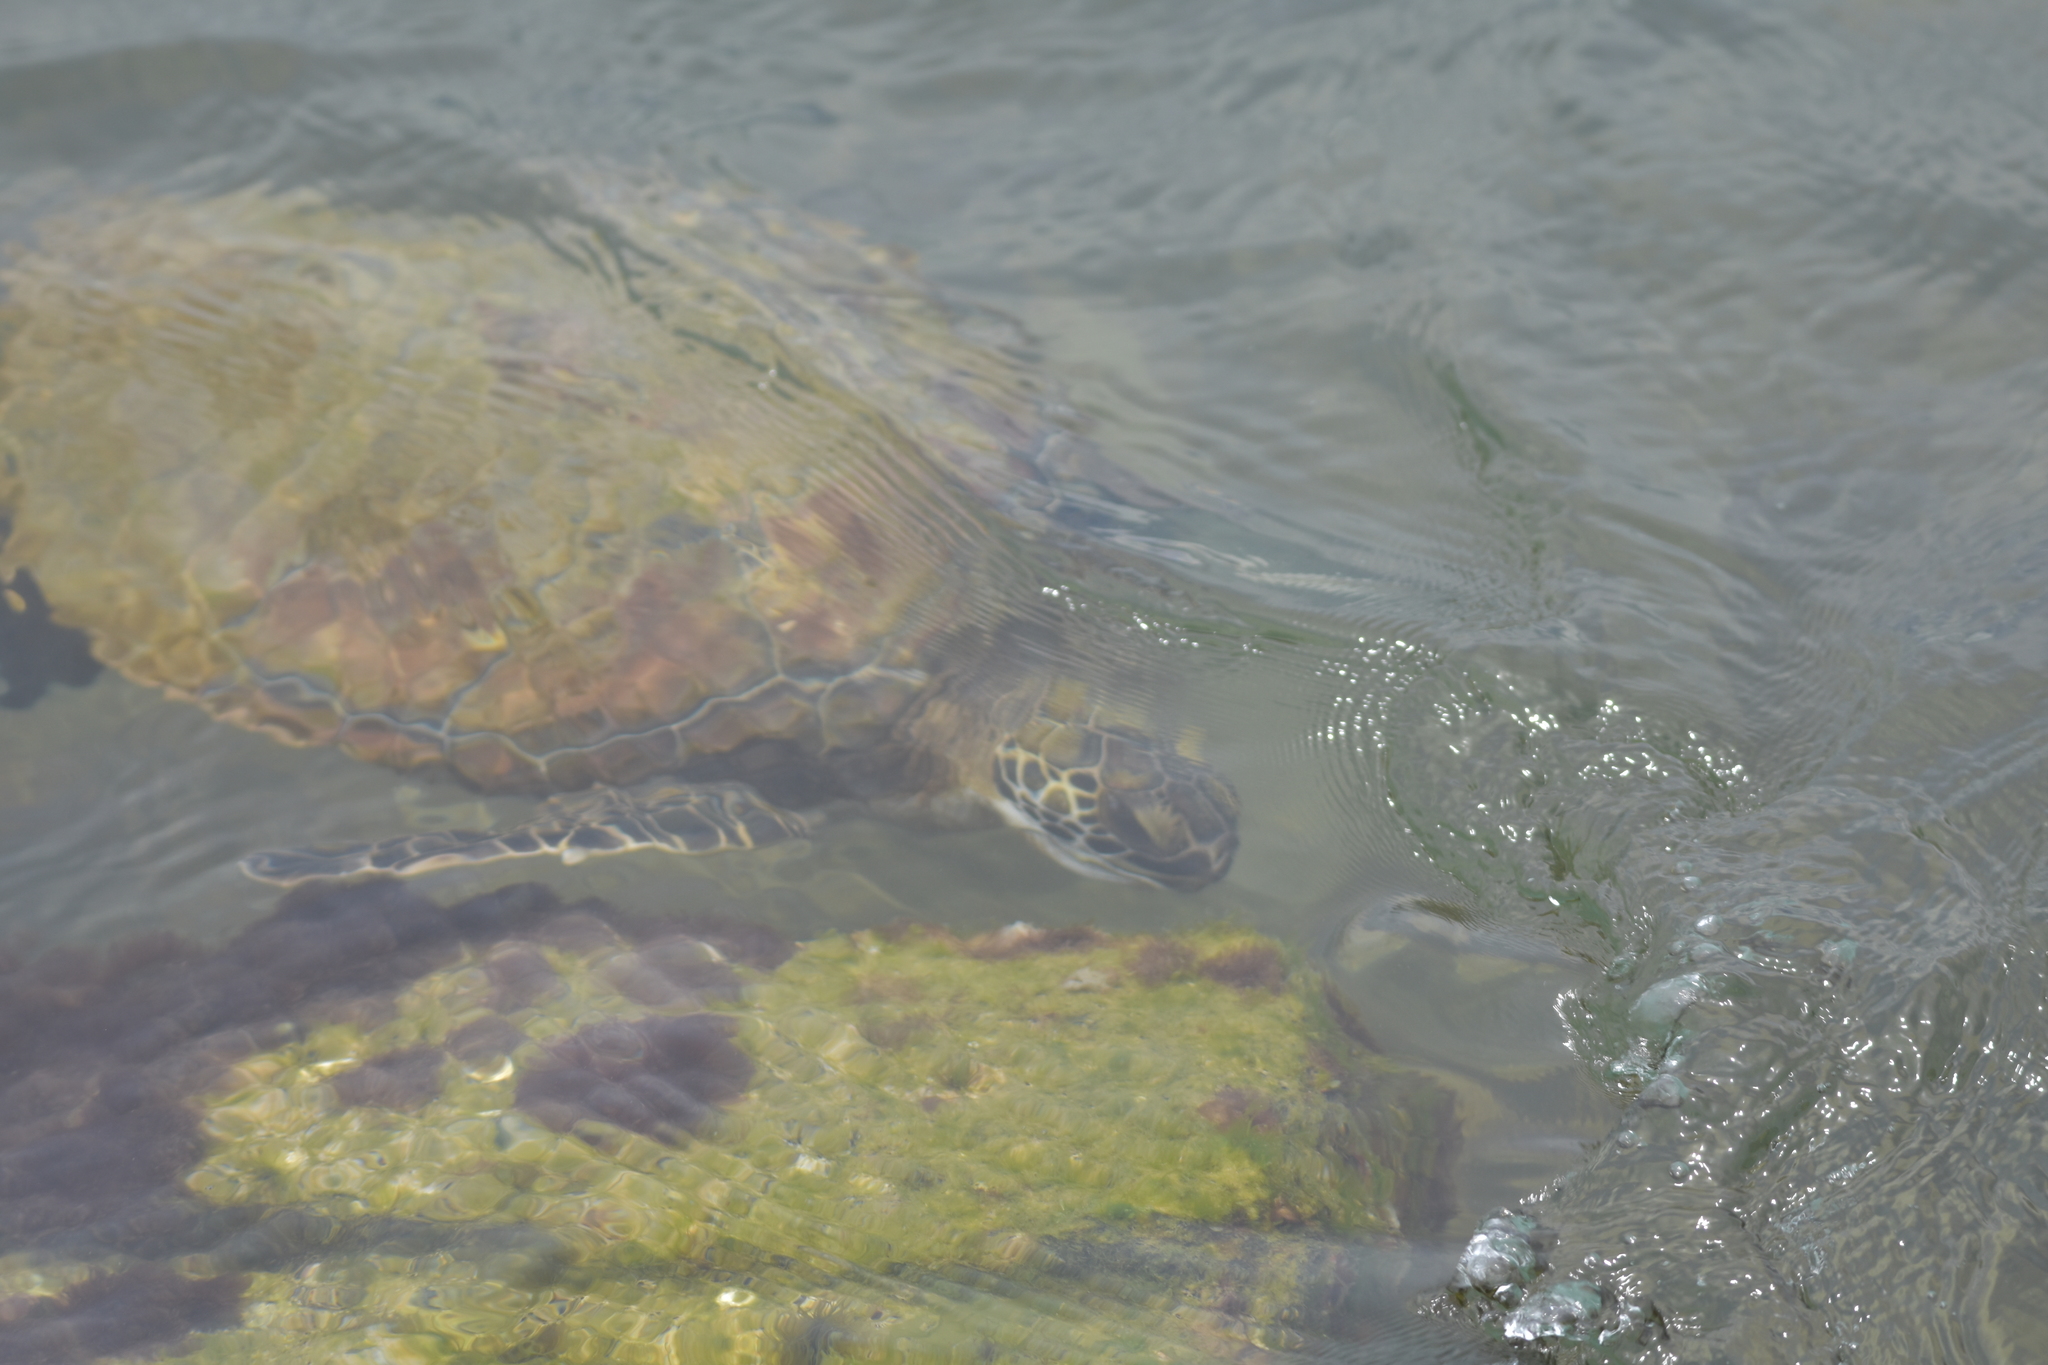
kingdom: Animalia
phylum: Chordata
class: Testudines
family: Cheloniidae
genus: Chelonia
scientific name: Chelonia mydas
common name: Green turtle
